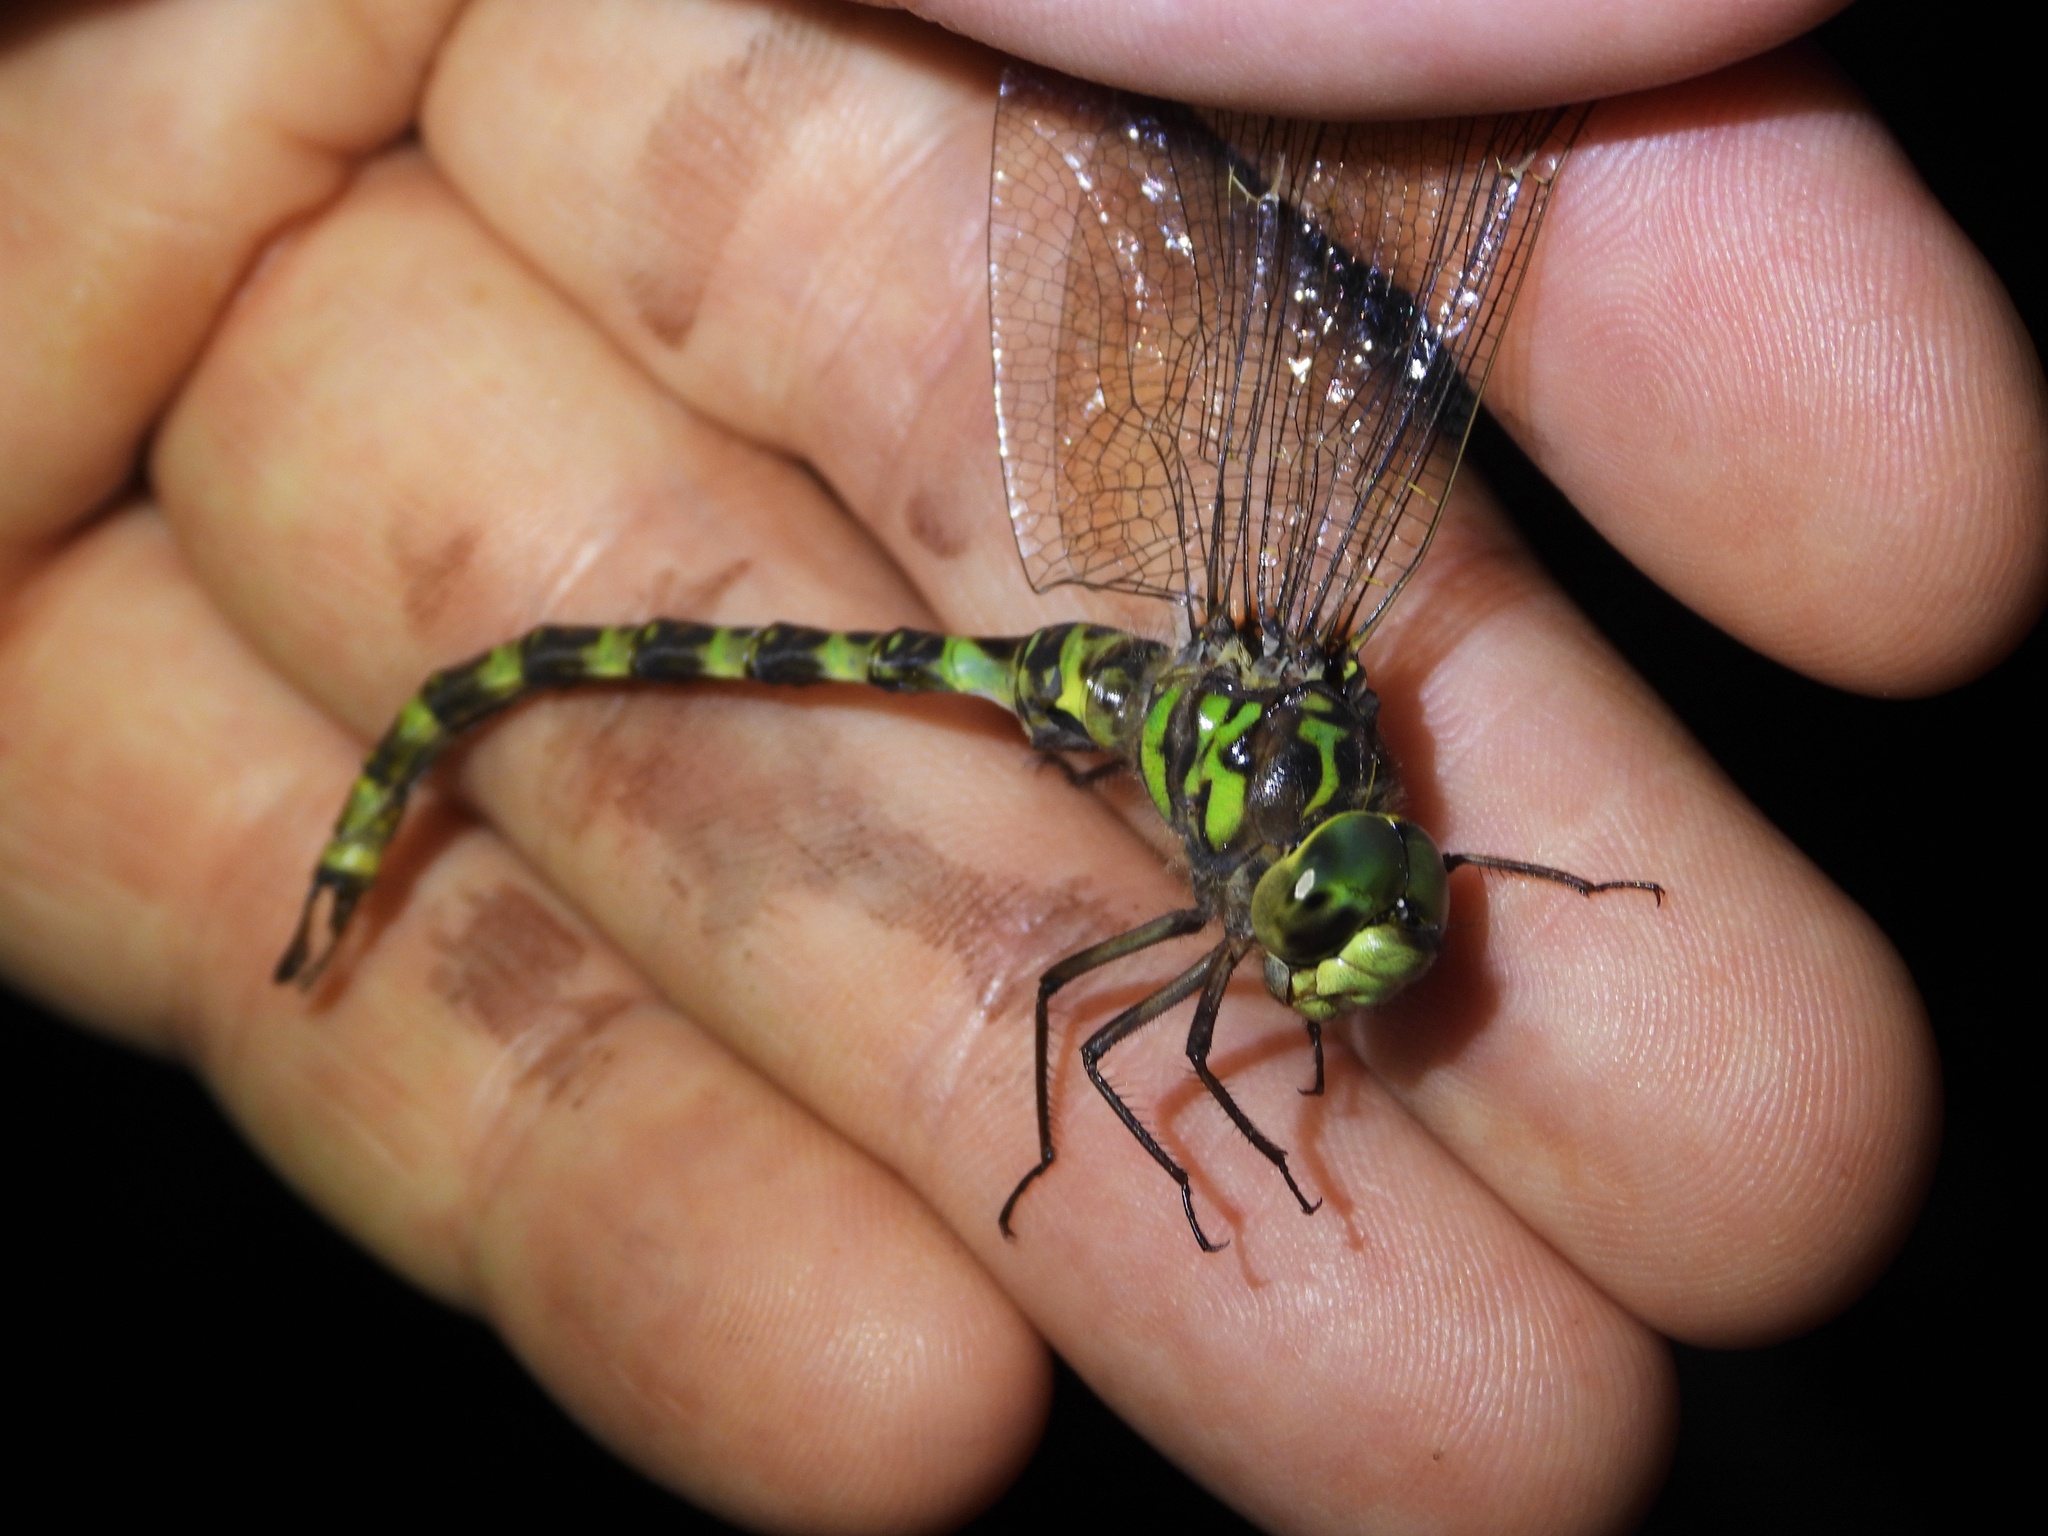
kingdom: Animalia
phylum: Arthropoda
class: Insecta
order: Odonata
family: Aeshnidae
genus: Boyeria
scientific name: Boyeria irene
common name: Western spectre
